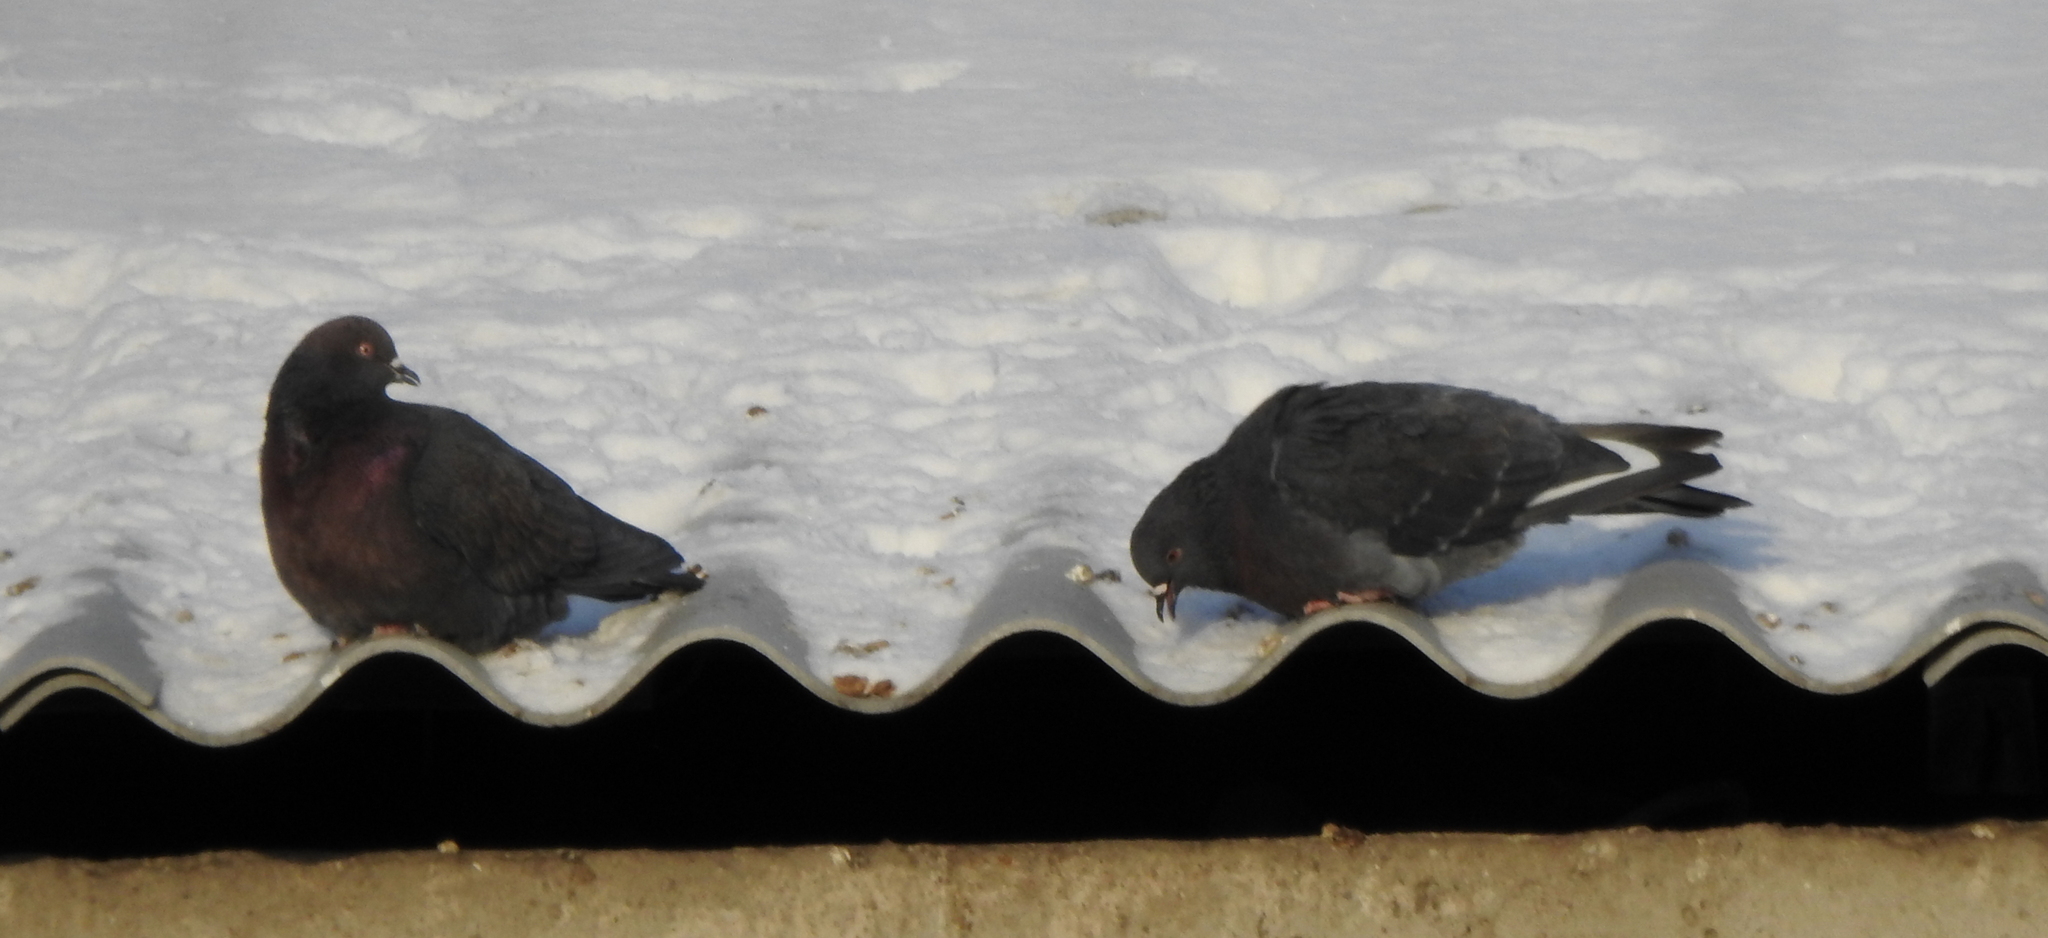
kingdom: Animalia
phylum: Chordata
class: Aves
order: Columbiformes
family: Columbidae
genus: Columba
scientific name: Columba livia
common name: Rock pigeon
